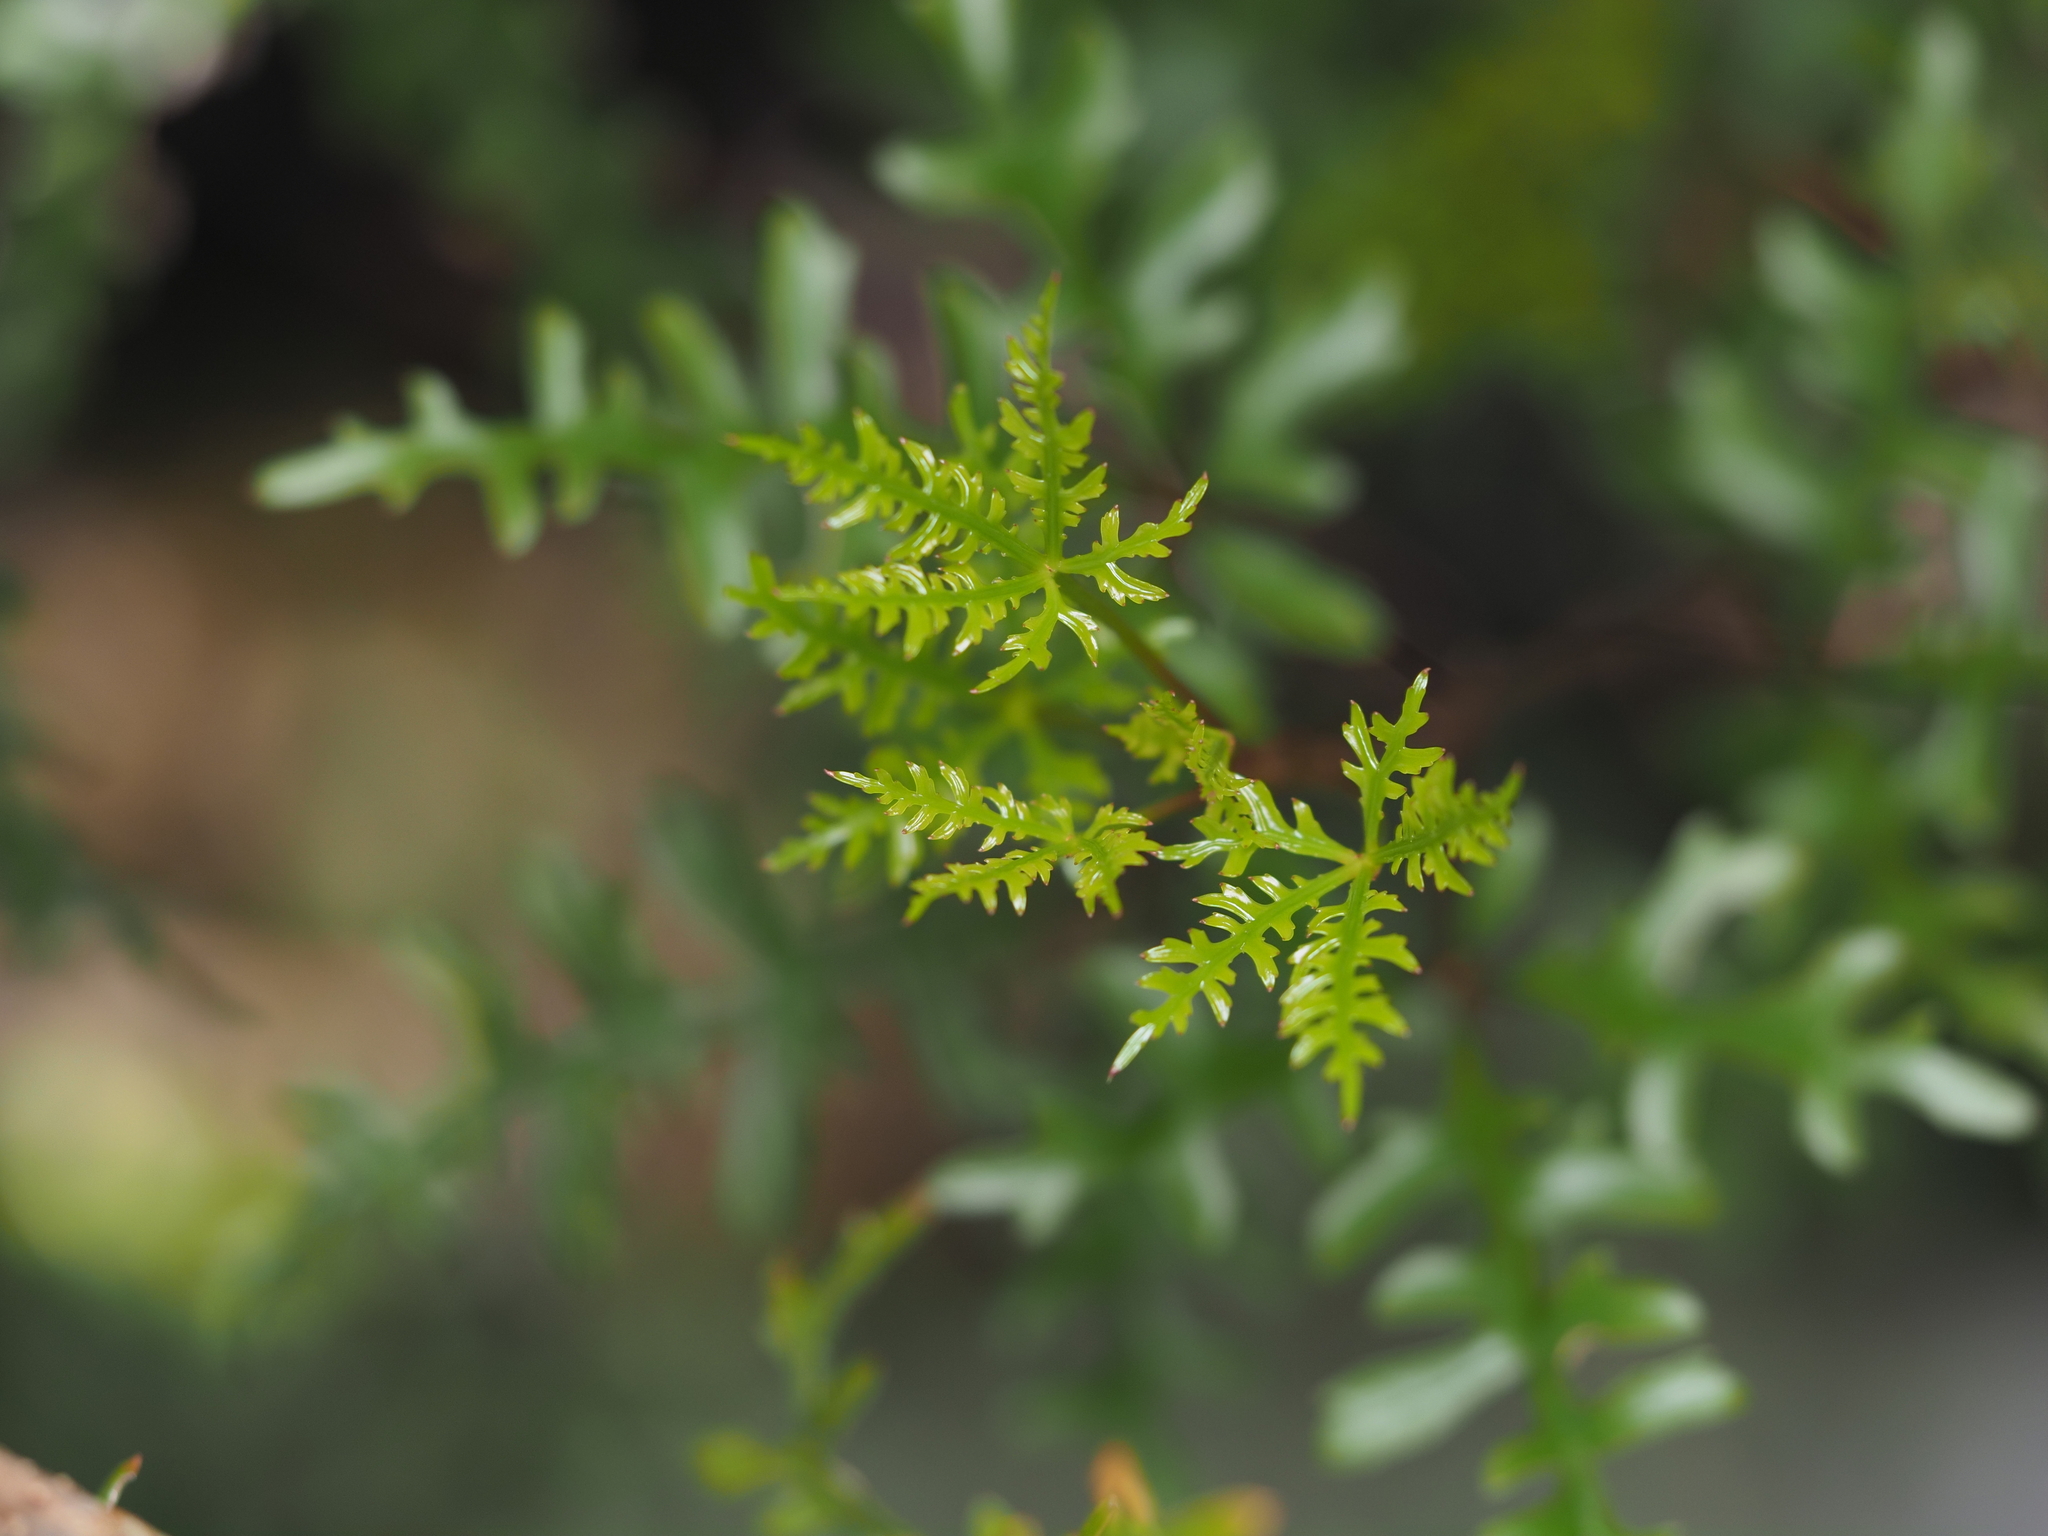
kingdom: Plantae
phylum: Tracheophyta
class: Magnoliopsida
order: Apiales
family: Araliaceae
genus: Raukaua
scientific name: Raukaua simplex
